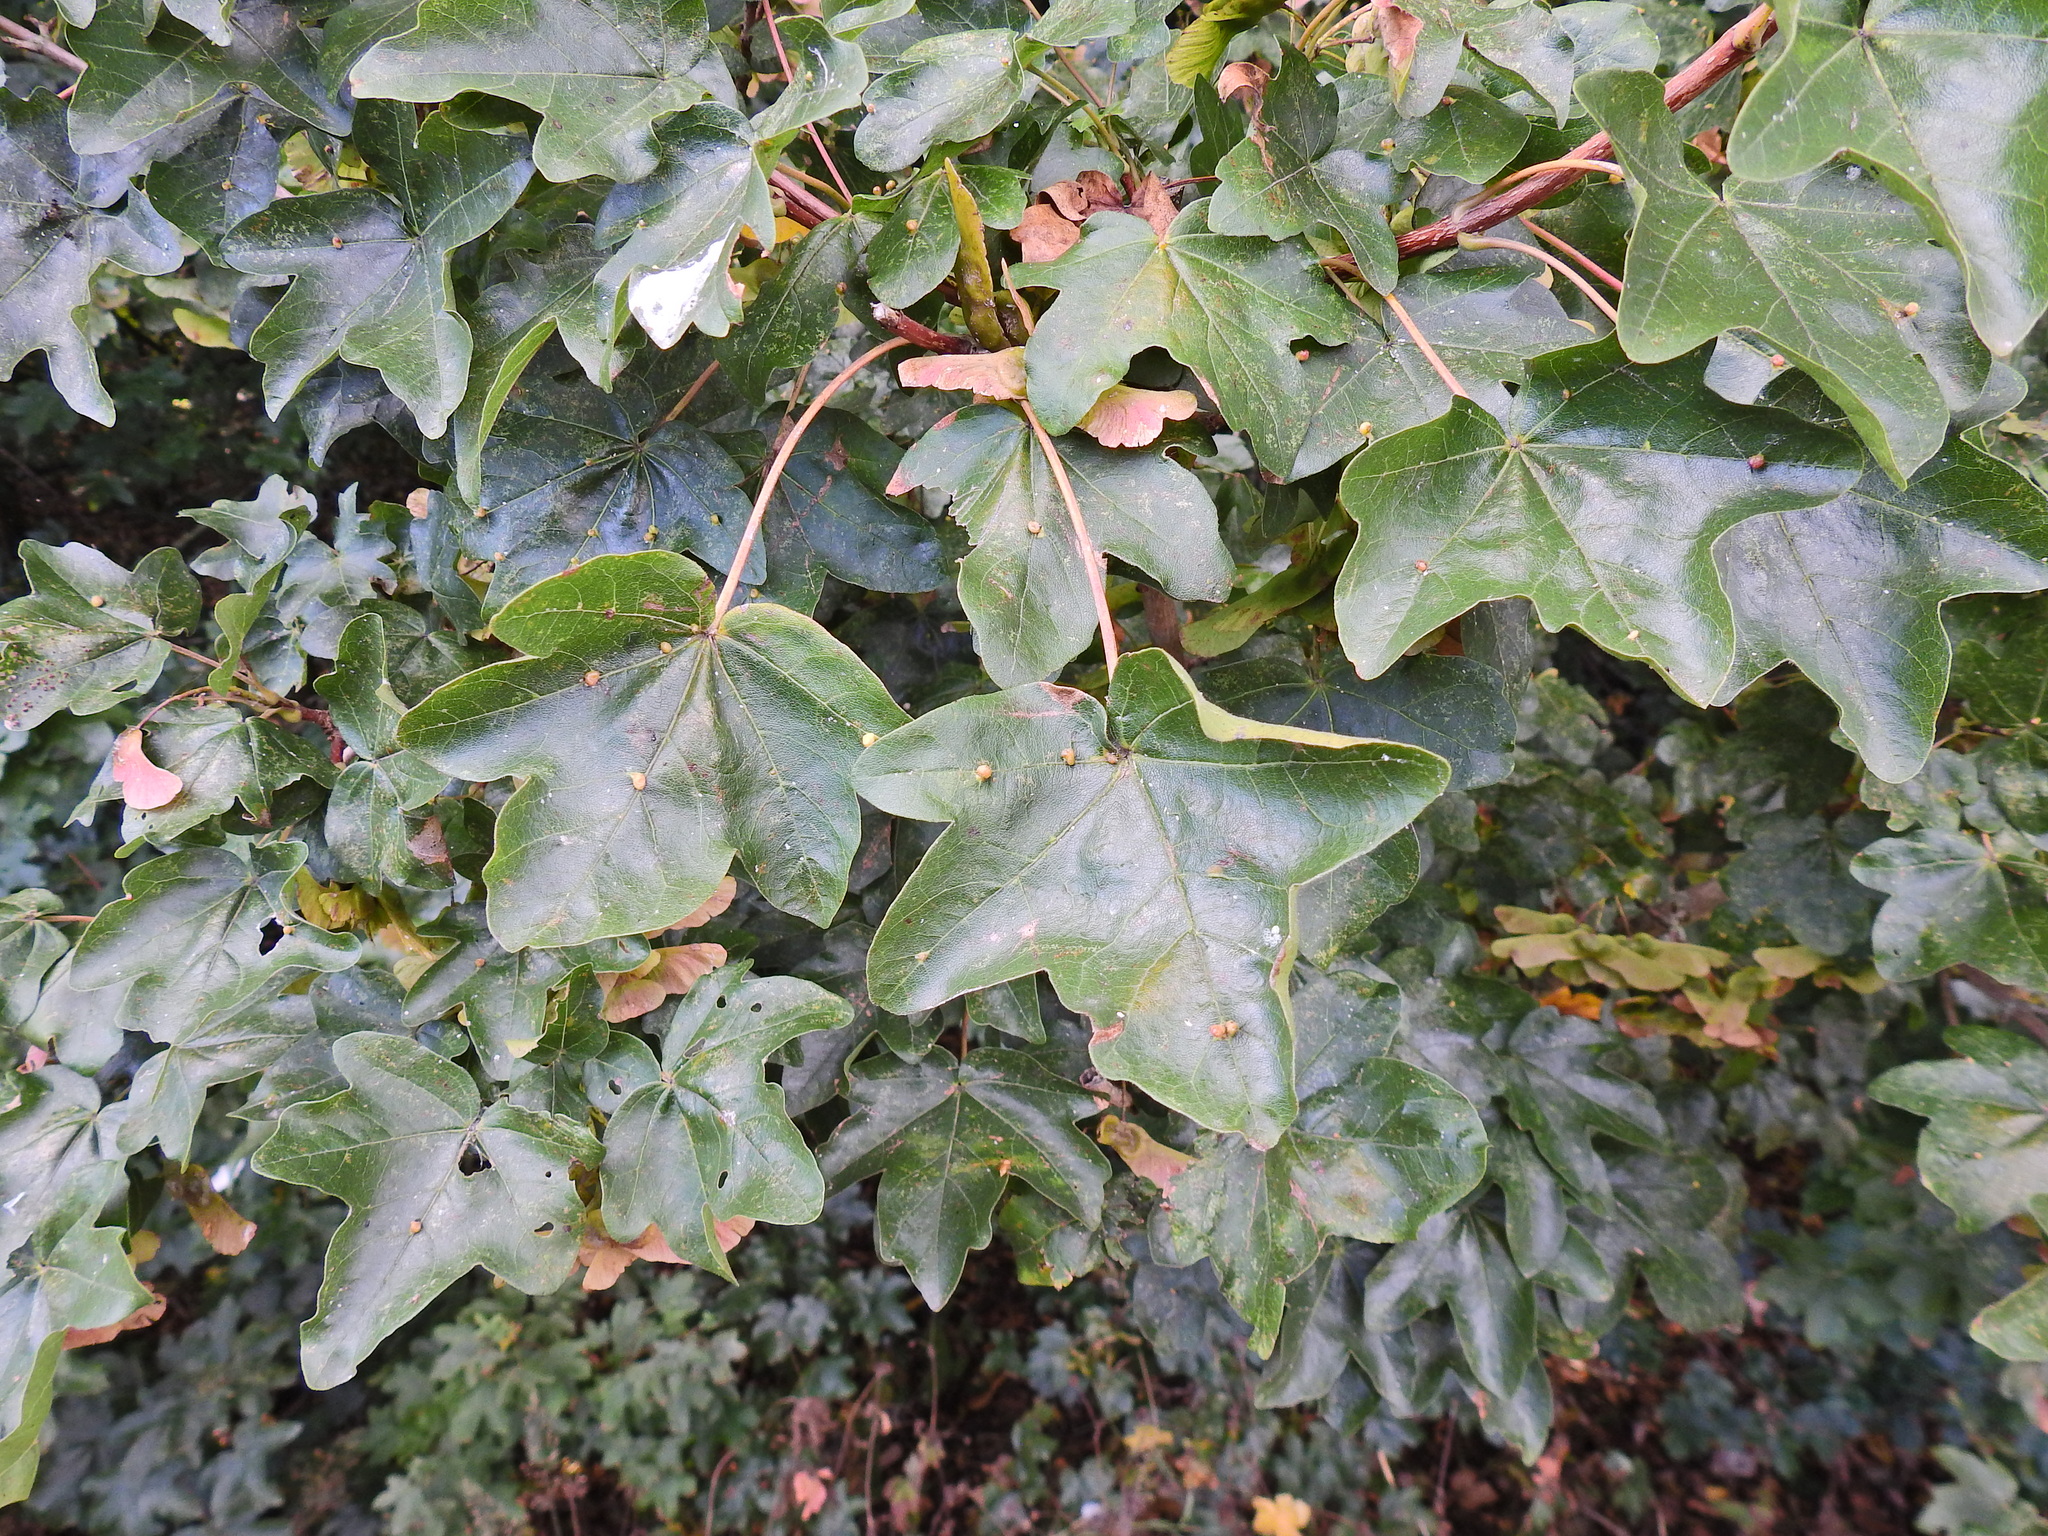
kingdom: Plantae
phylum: Tracheophyta
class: Magnoliopsida
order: Sapindales
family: Sapindaceae
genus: Acer
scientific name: Acer campestre
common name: Field maple
